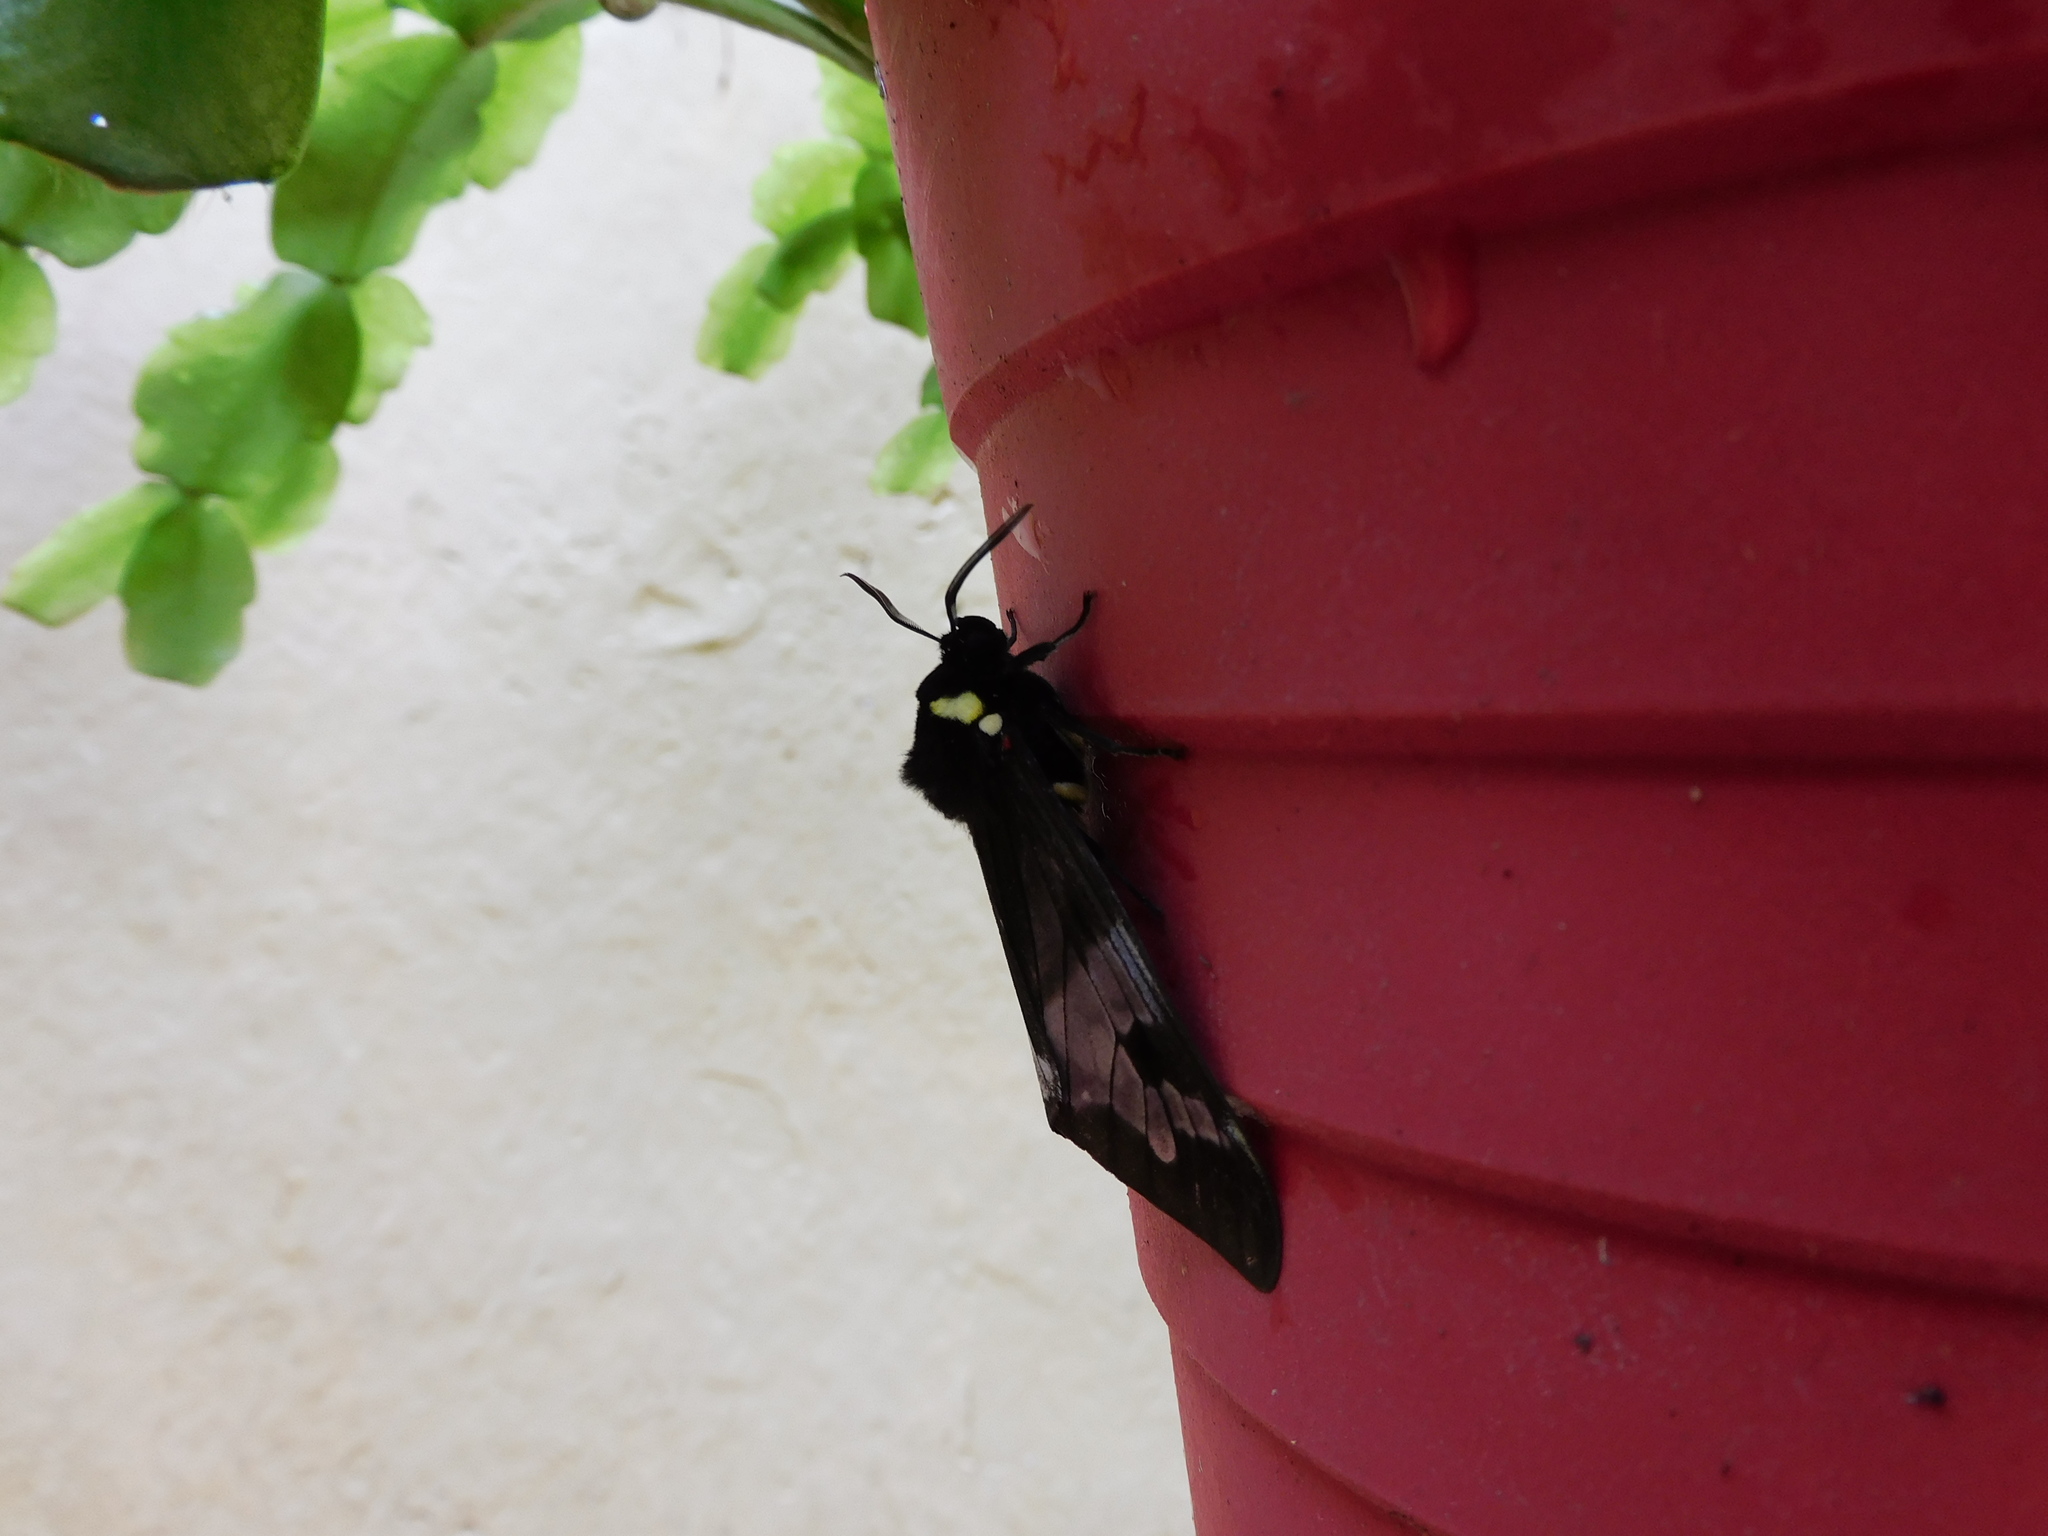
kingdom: Animalia
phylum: Arthropoda
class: Insecta
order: Lepidoptera
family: Erebidae
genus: Dysschema
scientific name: Dysschema marginalis
